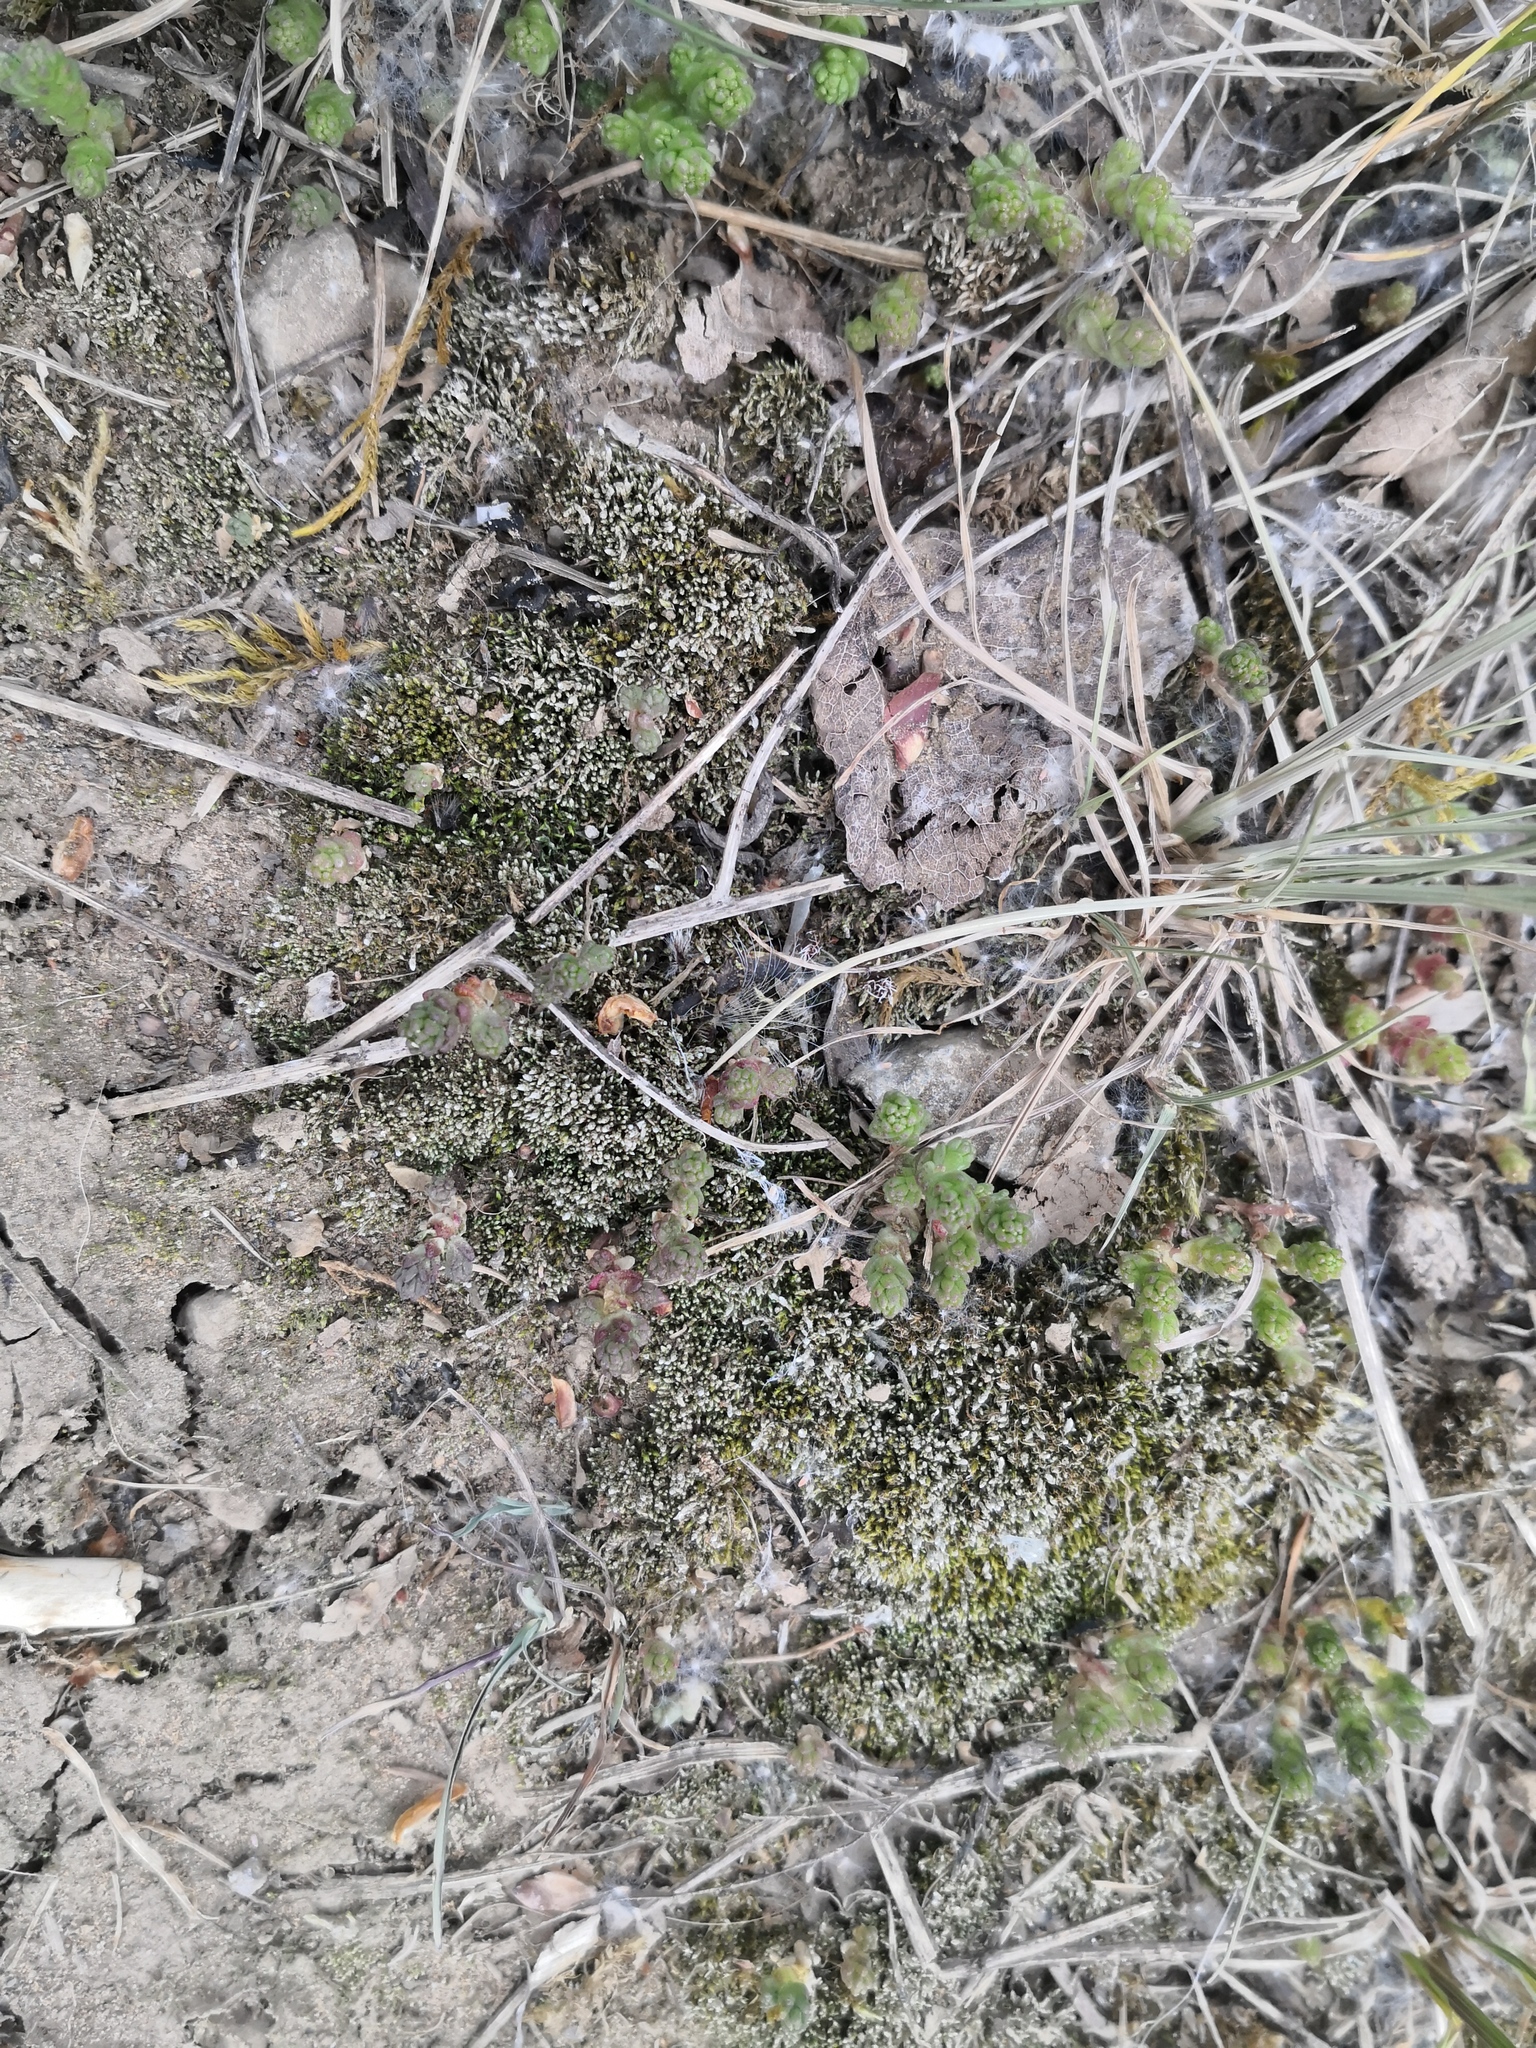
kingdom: Plantae
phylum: Tracheophyta
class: Magnoliopsida
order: Saxifragales
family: Crassulaceae
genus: Sedum
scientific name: Sedum acre
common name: Biting stonecrop
